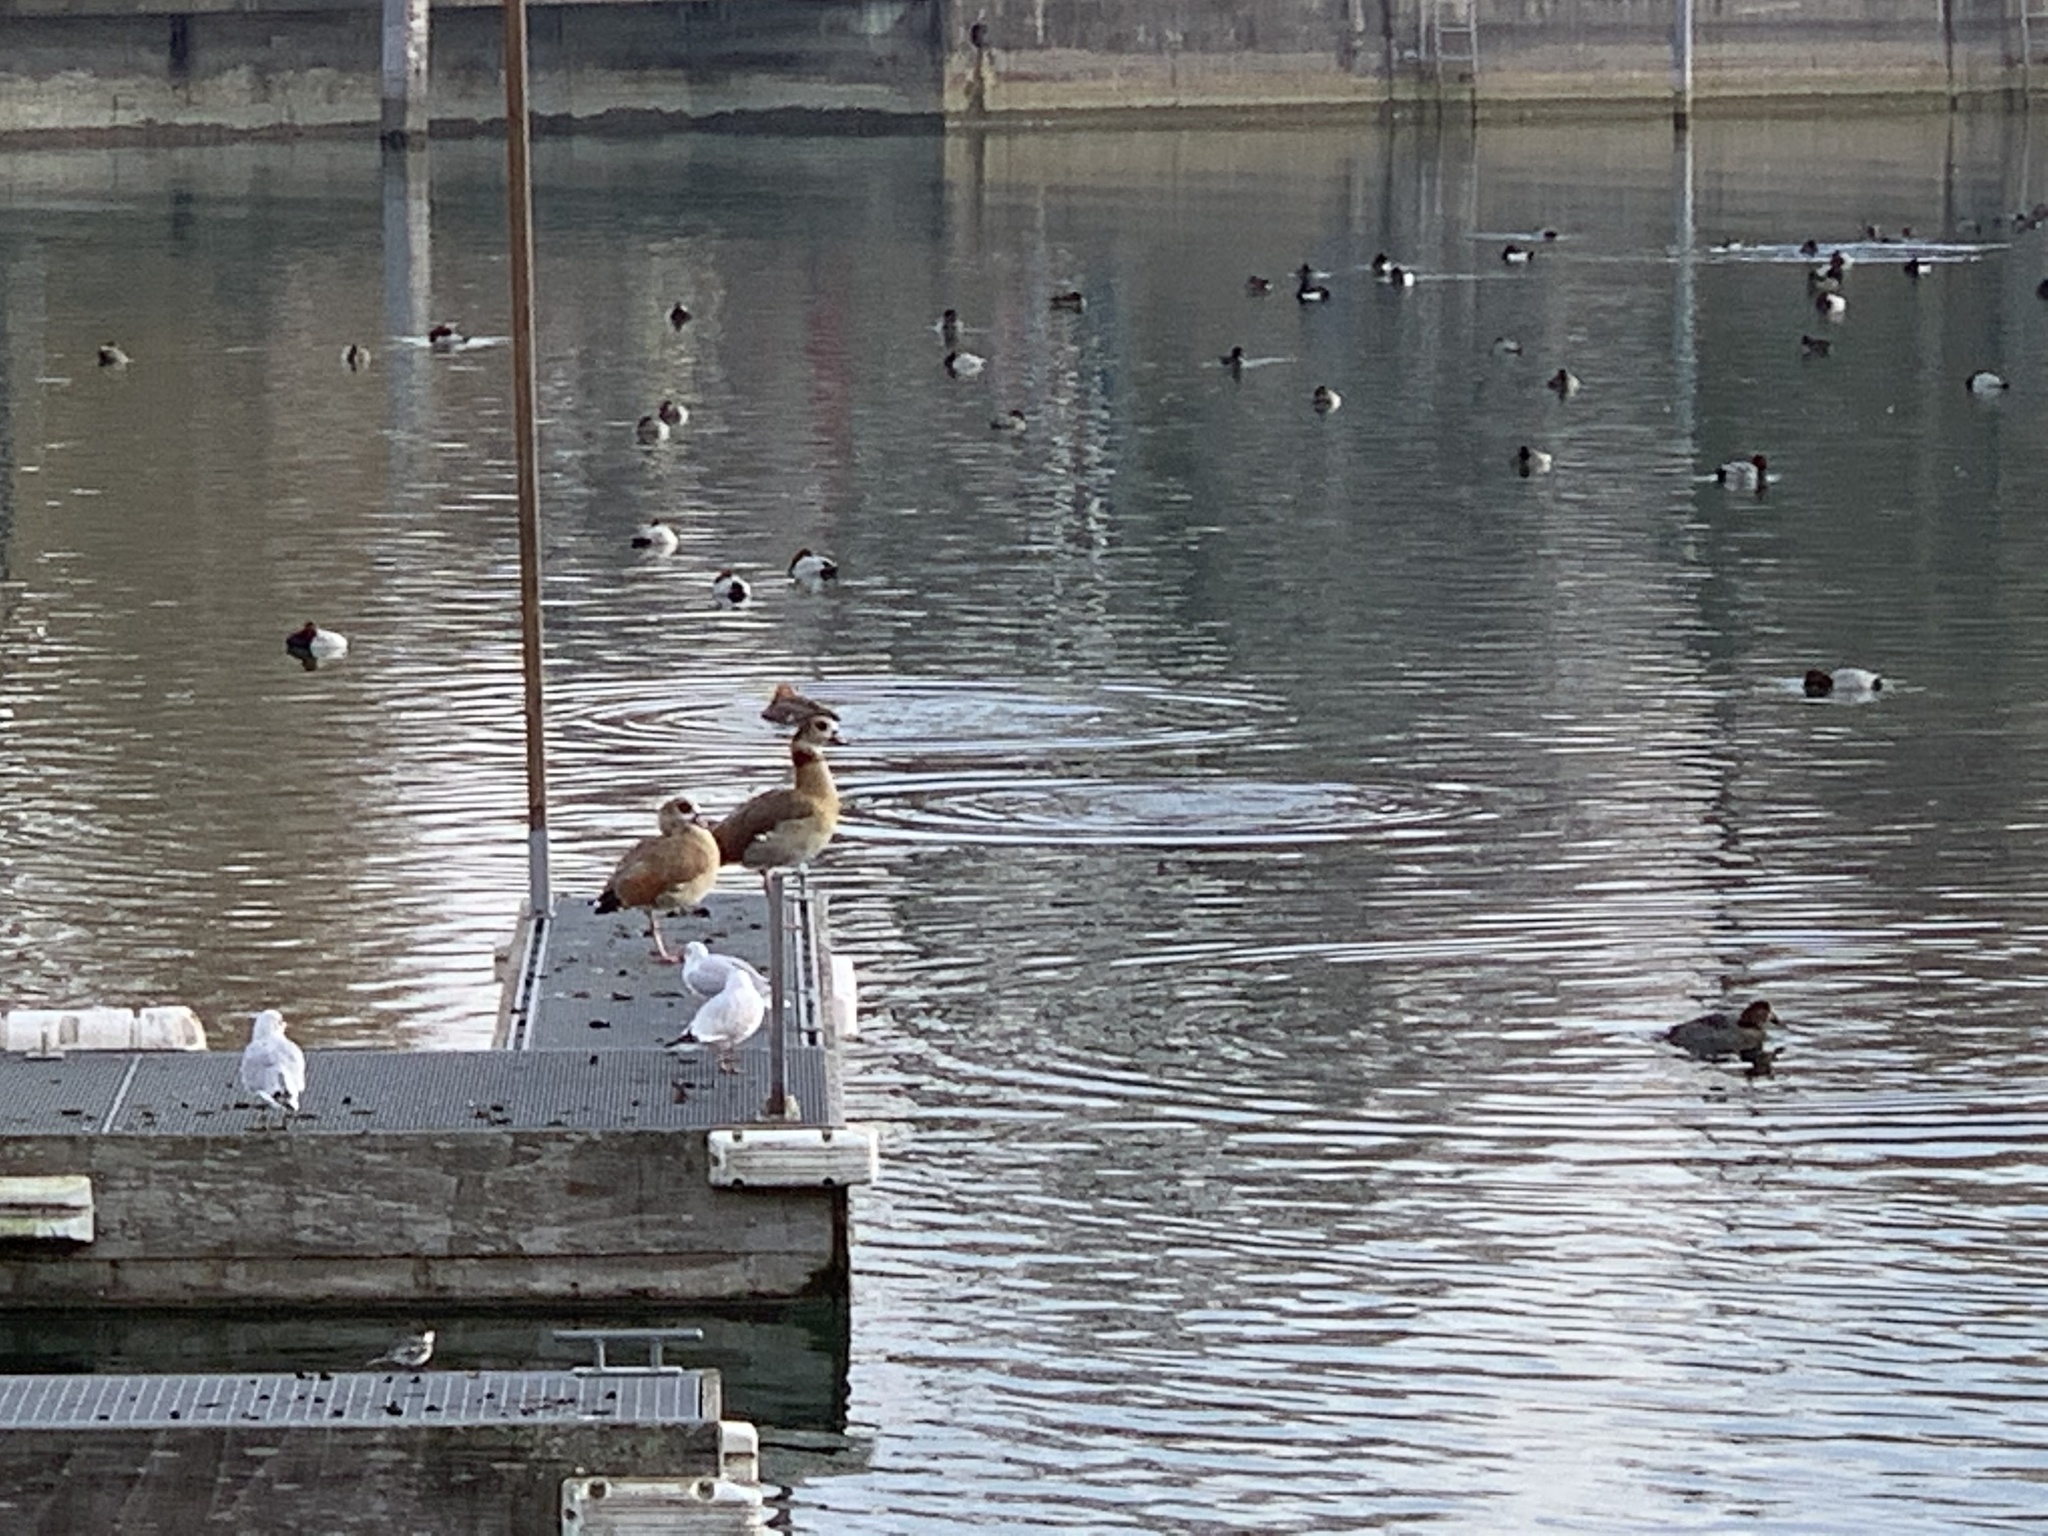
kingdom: Animalia
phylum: Chordata
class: Aves
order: Anseriformes
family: Anatidae
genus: Alopochen
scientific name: Alopochen aegyptiaca
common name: Egyptian goose
